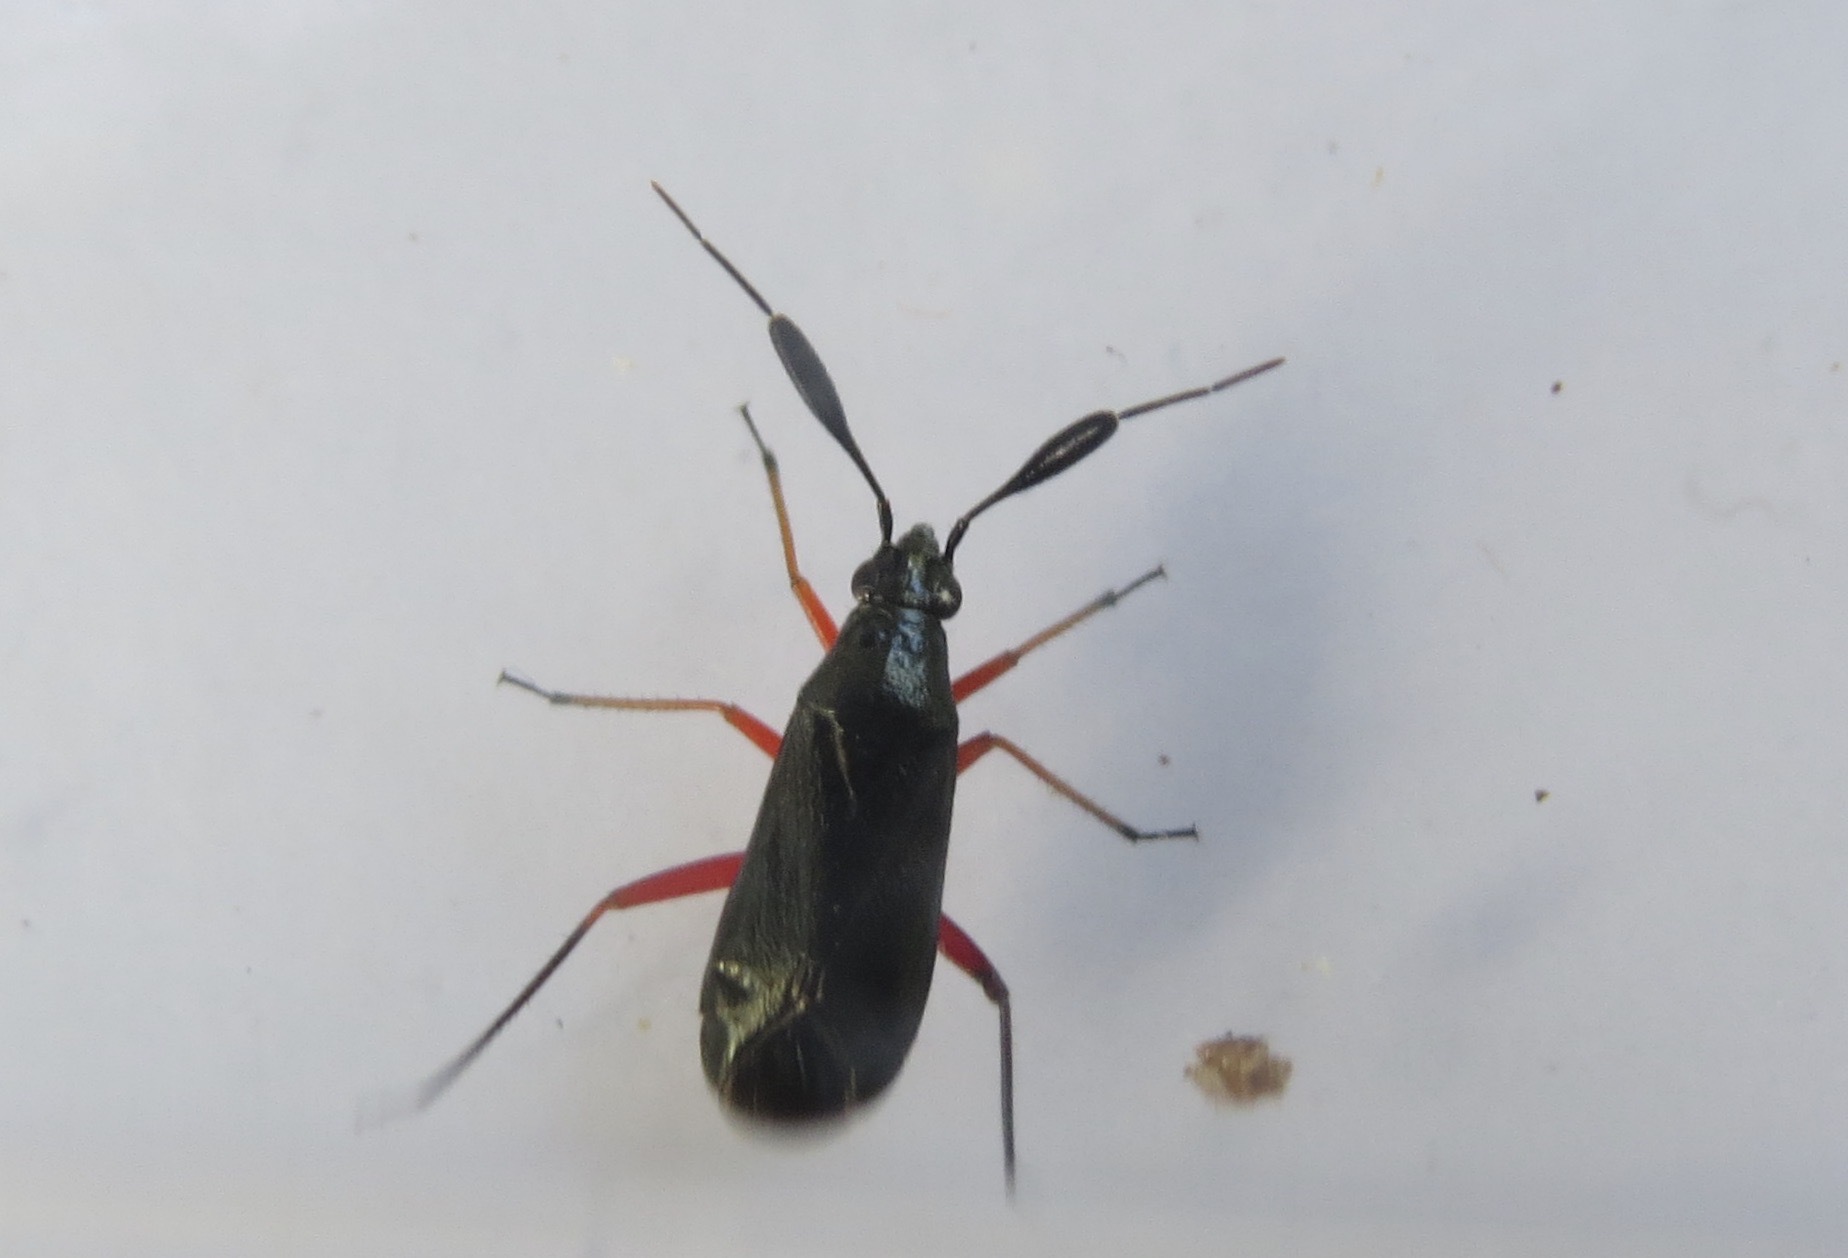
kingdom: Animalia
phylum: Arthropoda
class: Insecta
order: Hemiptera
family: Miridae
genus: Teleorhinus
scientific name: Teleorhinus cyaneus
